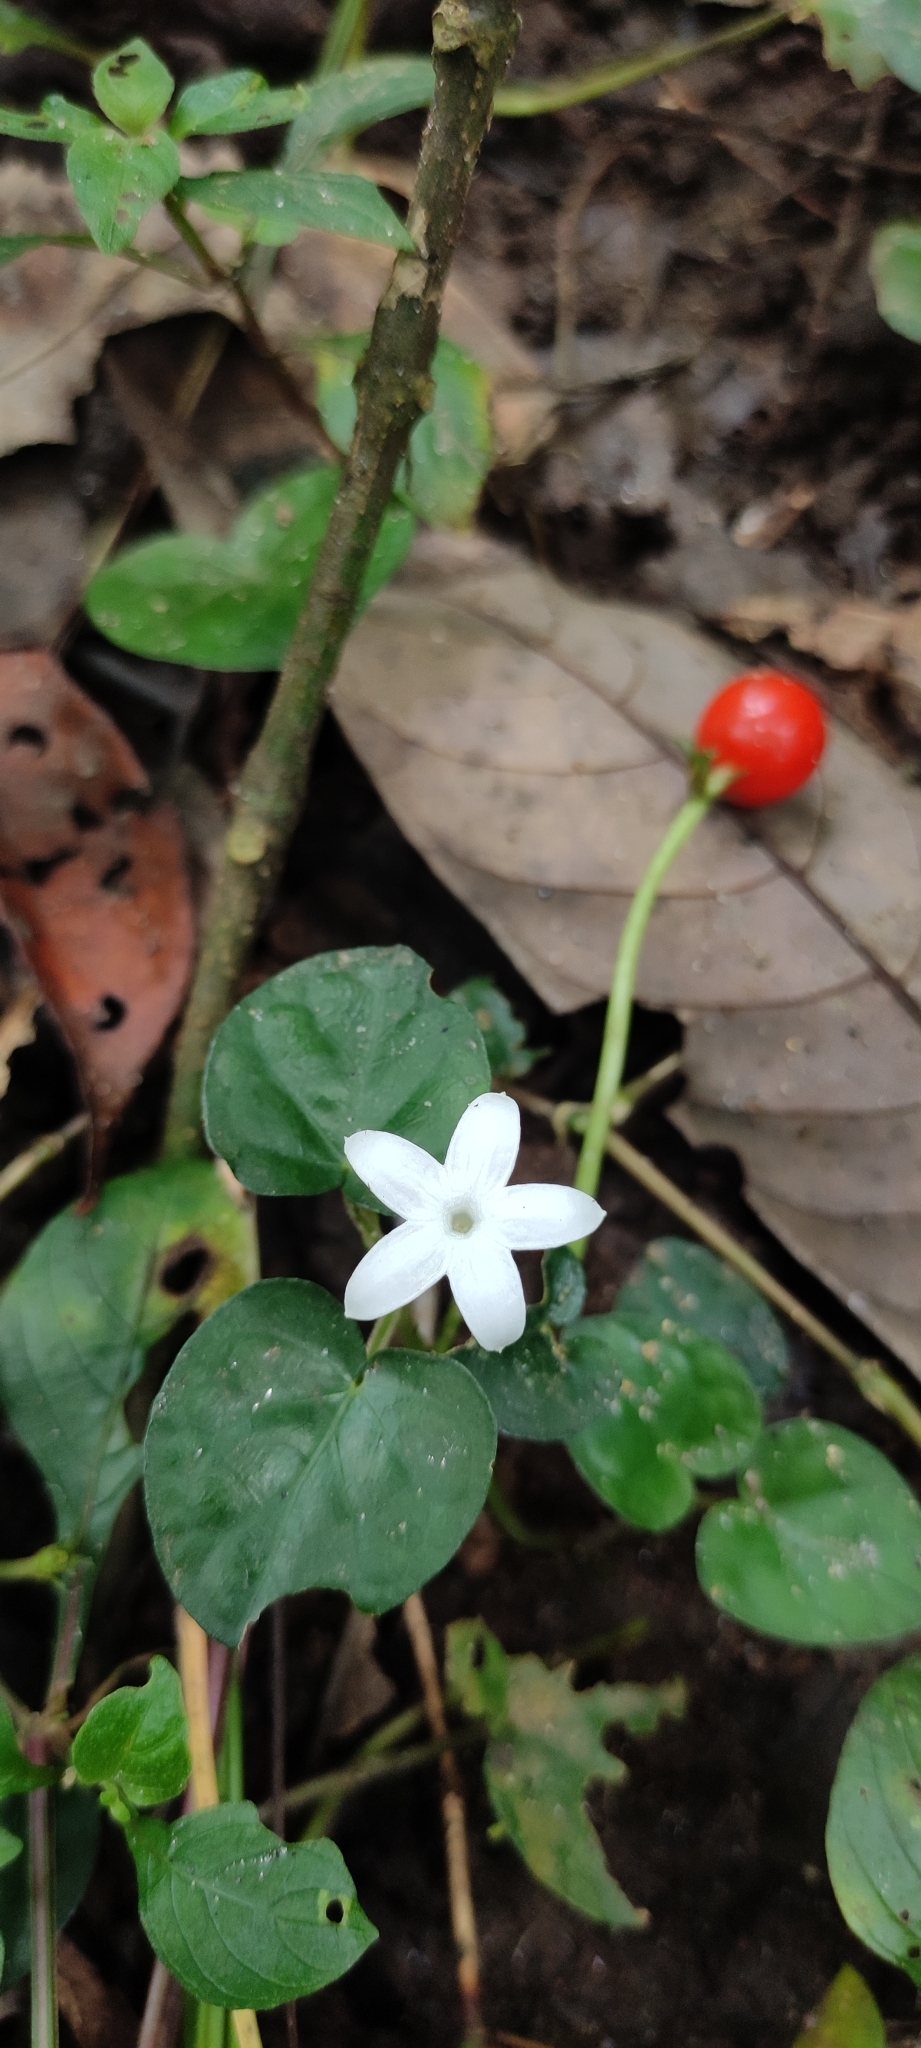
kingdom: Plantae
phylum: Tracheophyta
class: Magnoliopsida
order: Gentianales
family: Rubiaceae
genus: Geophila
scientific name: Geophila herbacea
